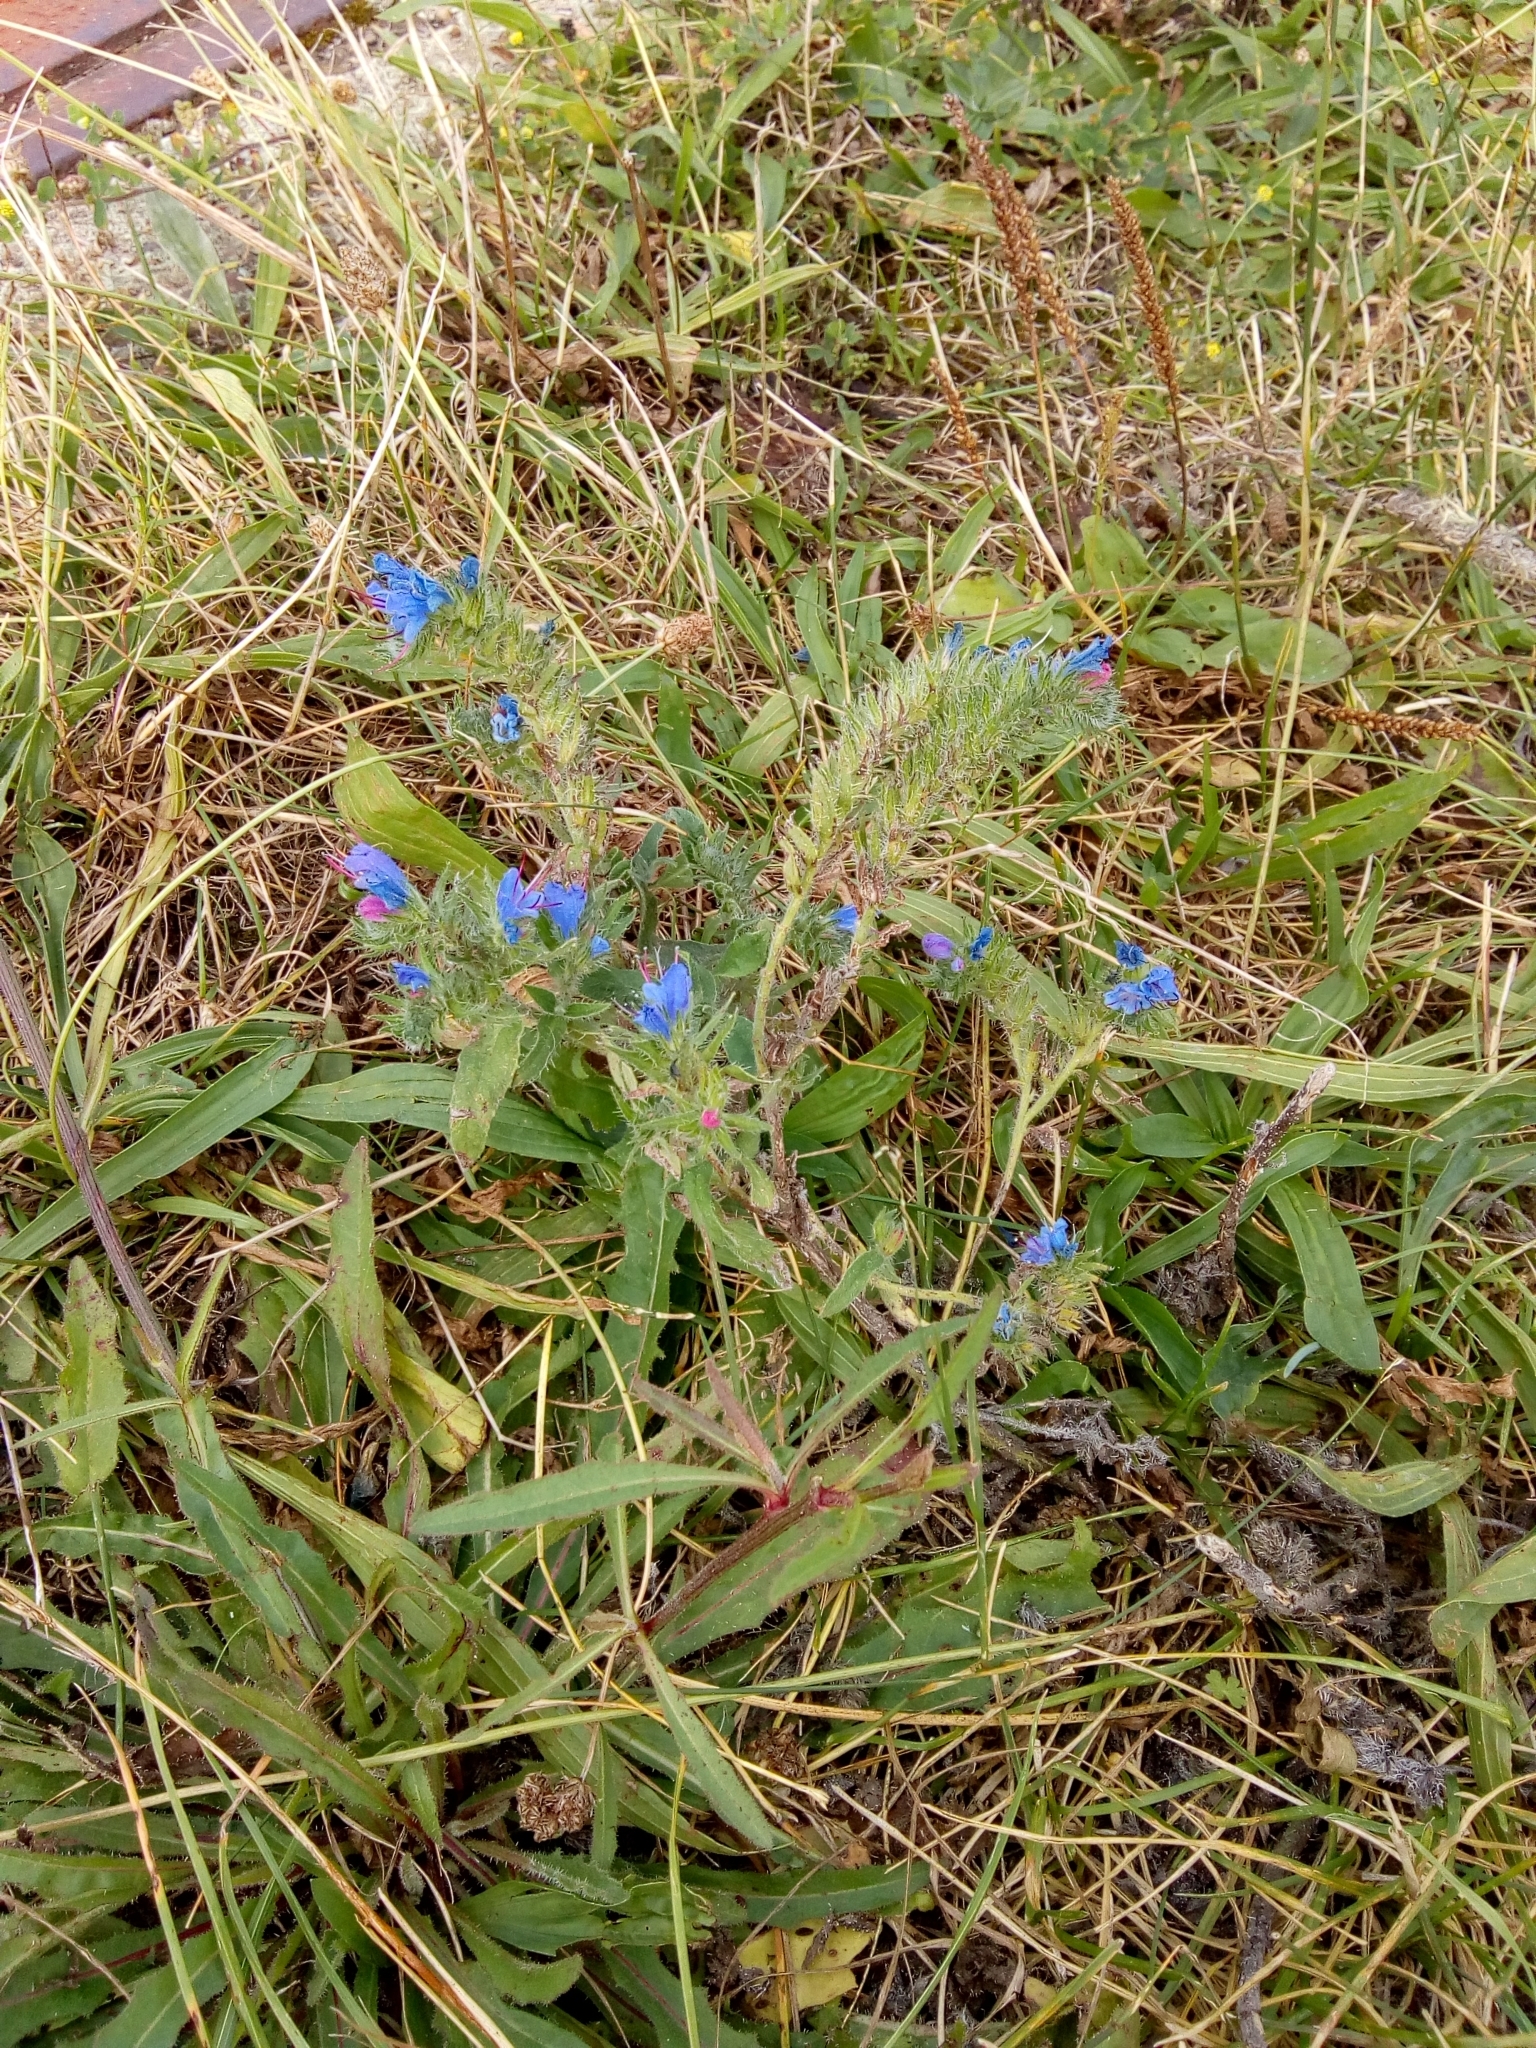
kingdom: Plantae
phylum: Tracheophyta
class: Magnoliopsida
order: Boraginales
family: Boraginaceae
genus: Echium
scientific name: Echium vulgare
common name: Common viper's bugloss
